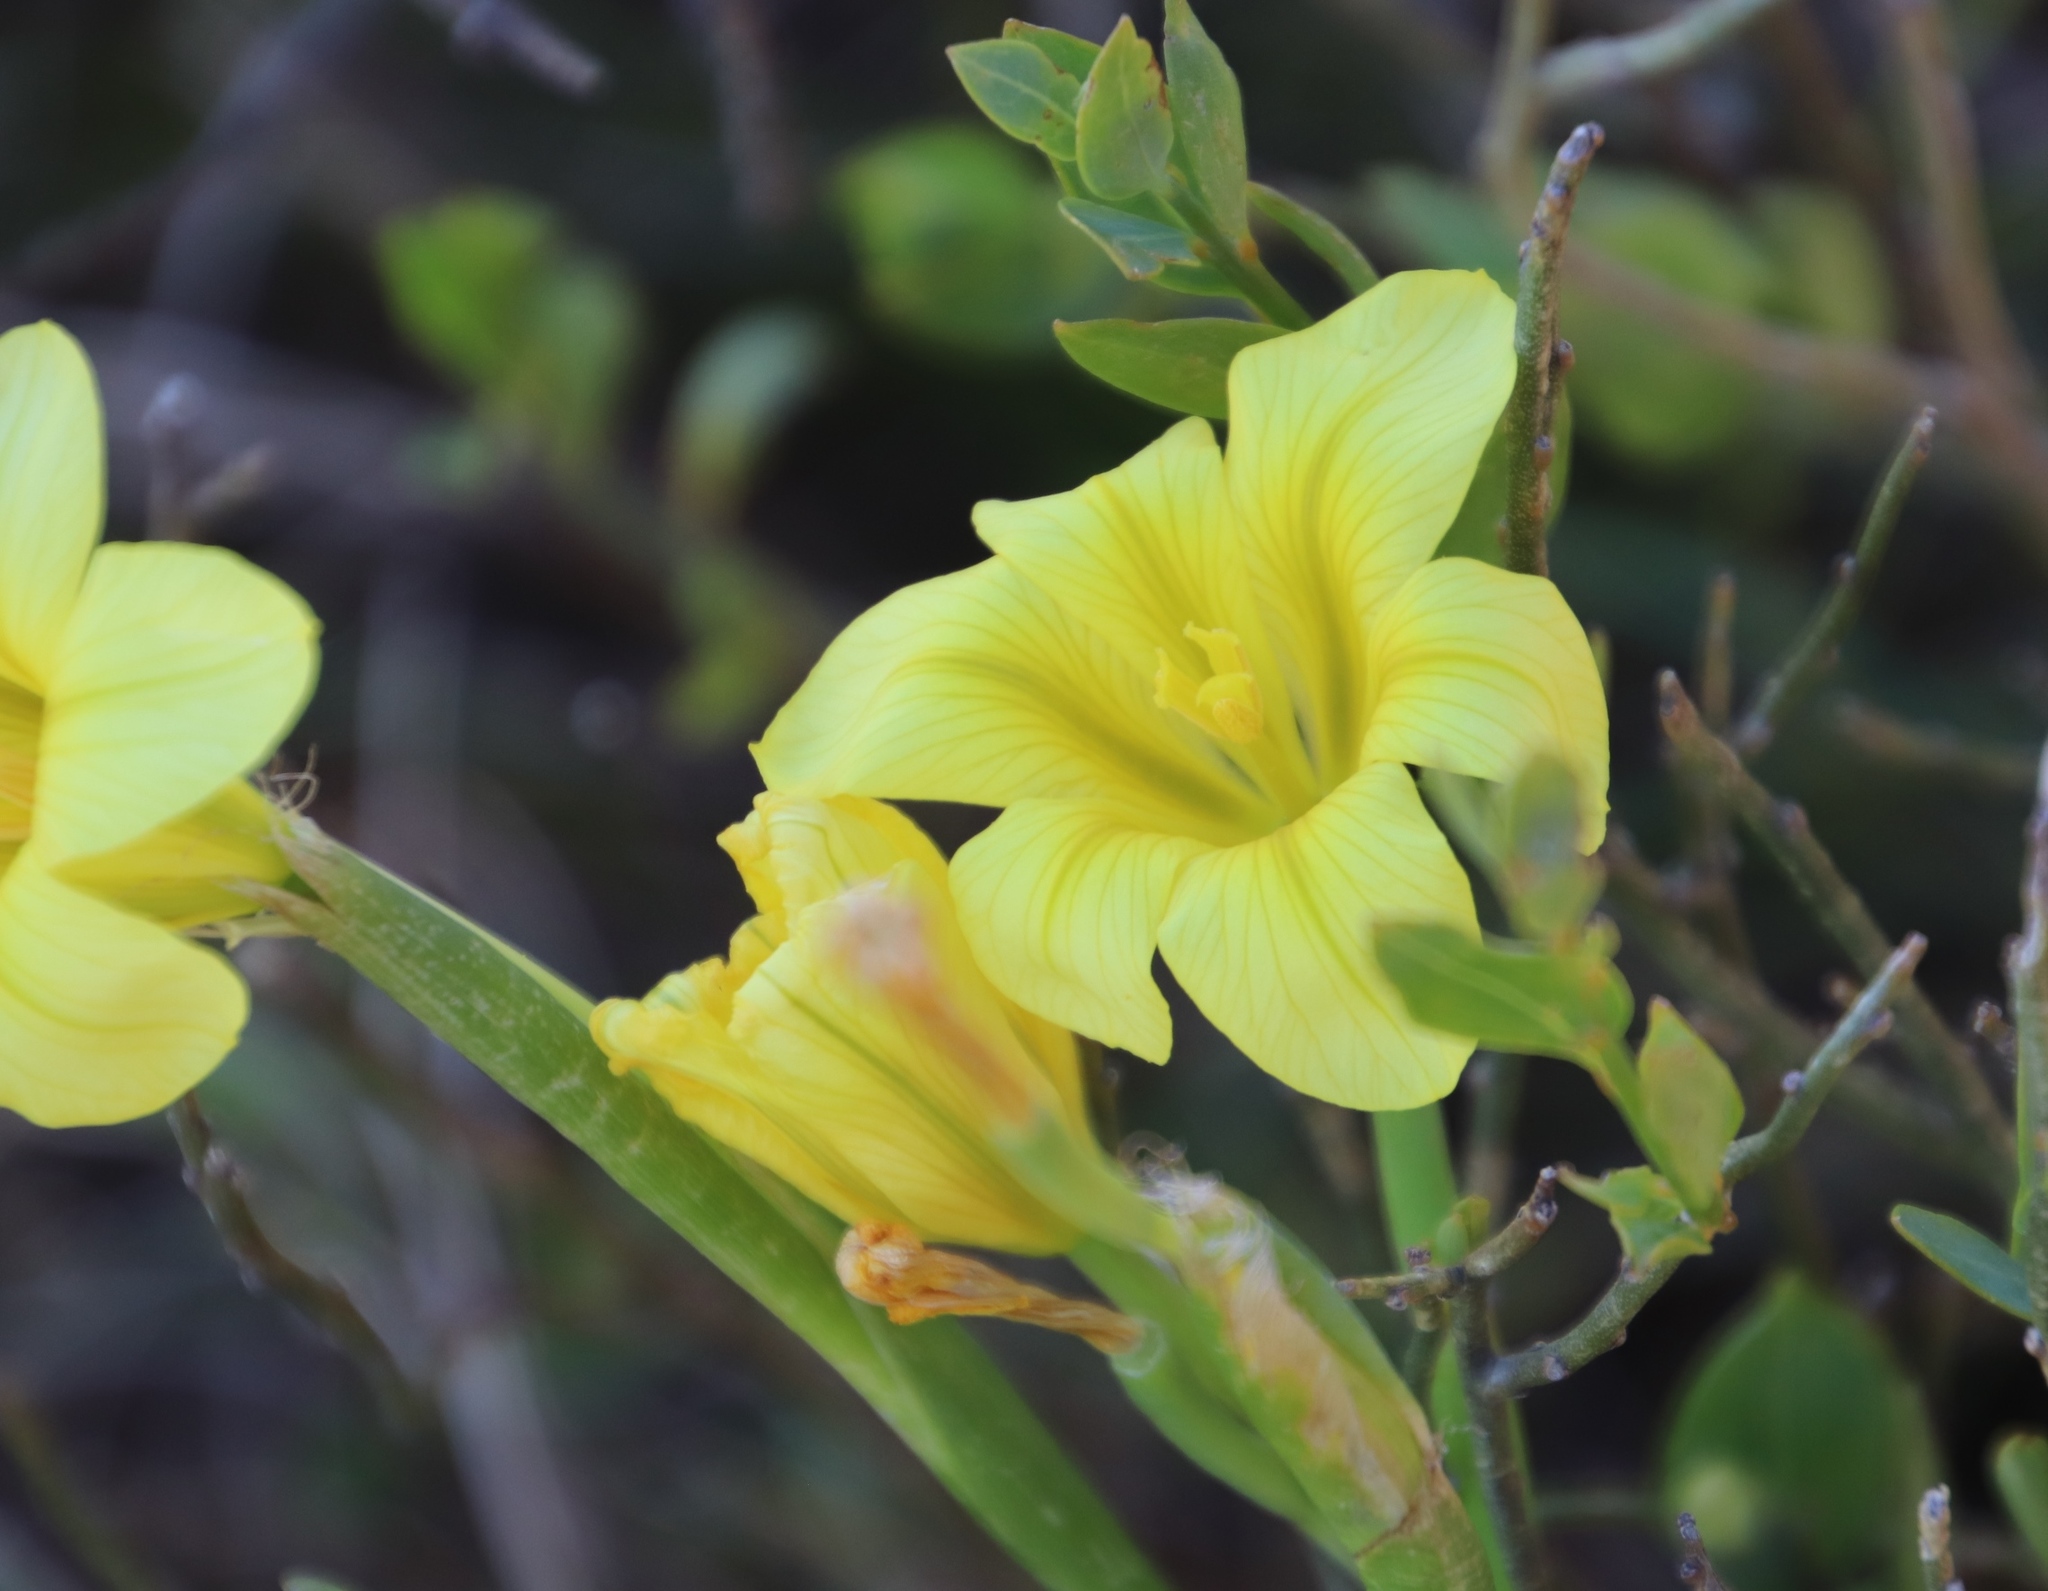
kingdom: Plantae
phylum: Tracheophyta
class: Liliopsida
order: Asparagales
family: Iridaceae
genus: Moraea
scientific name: Moraea ochroleuca
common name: Red tulp
